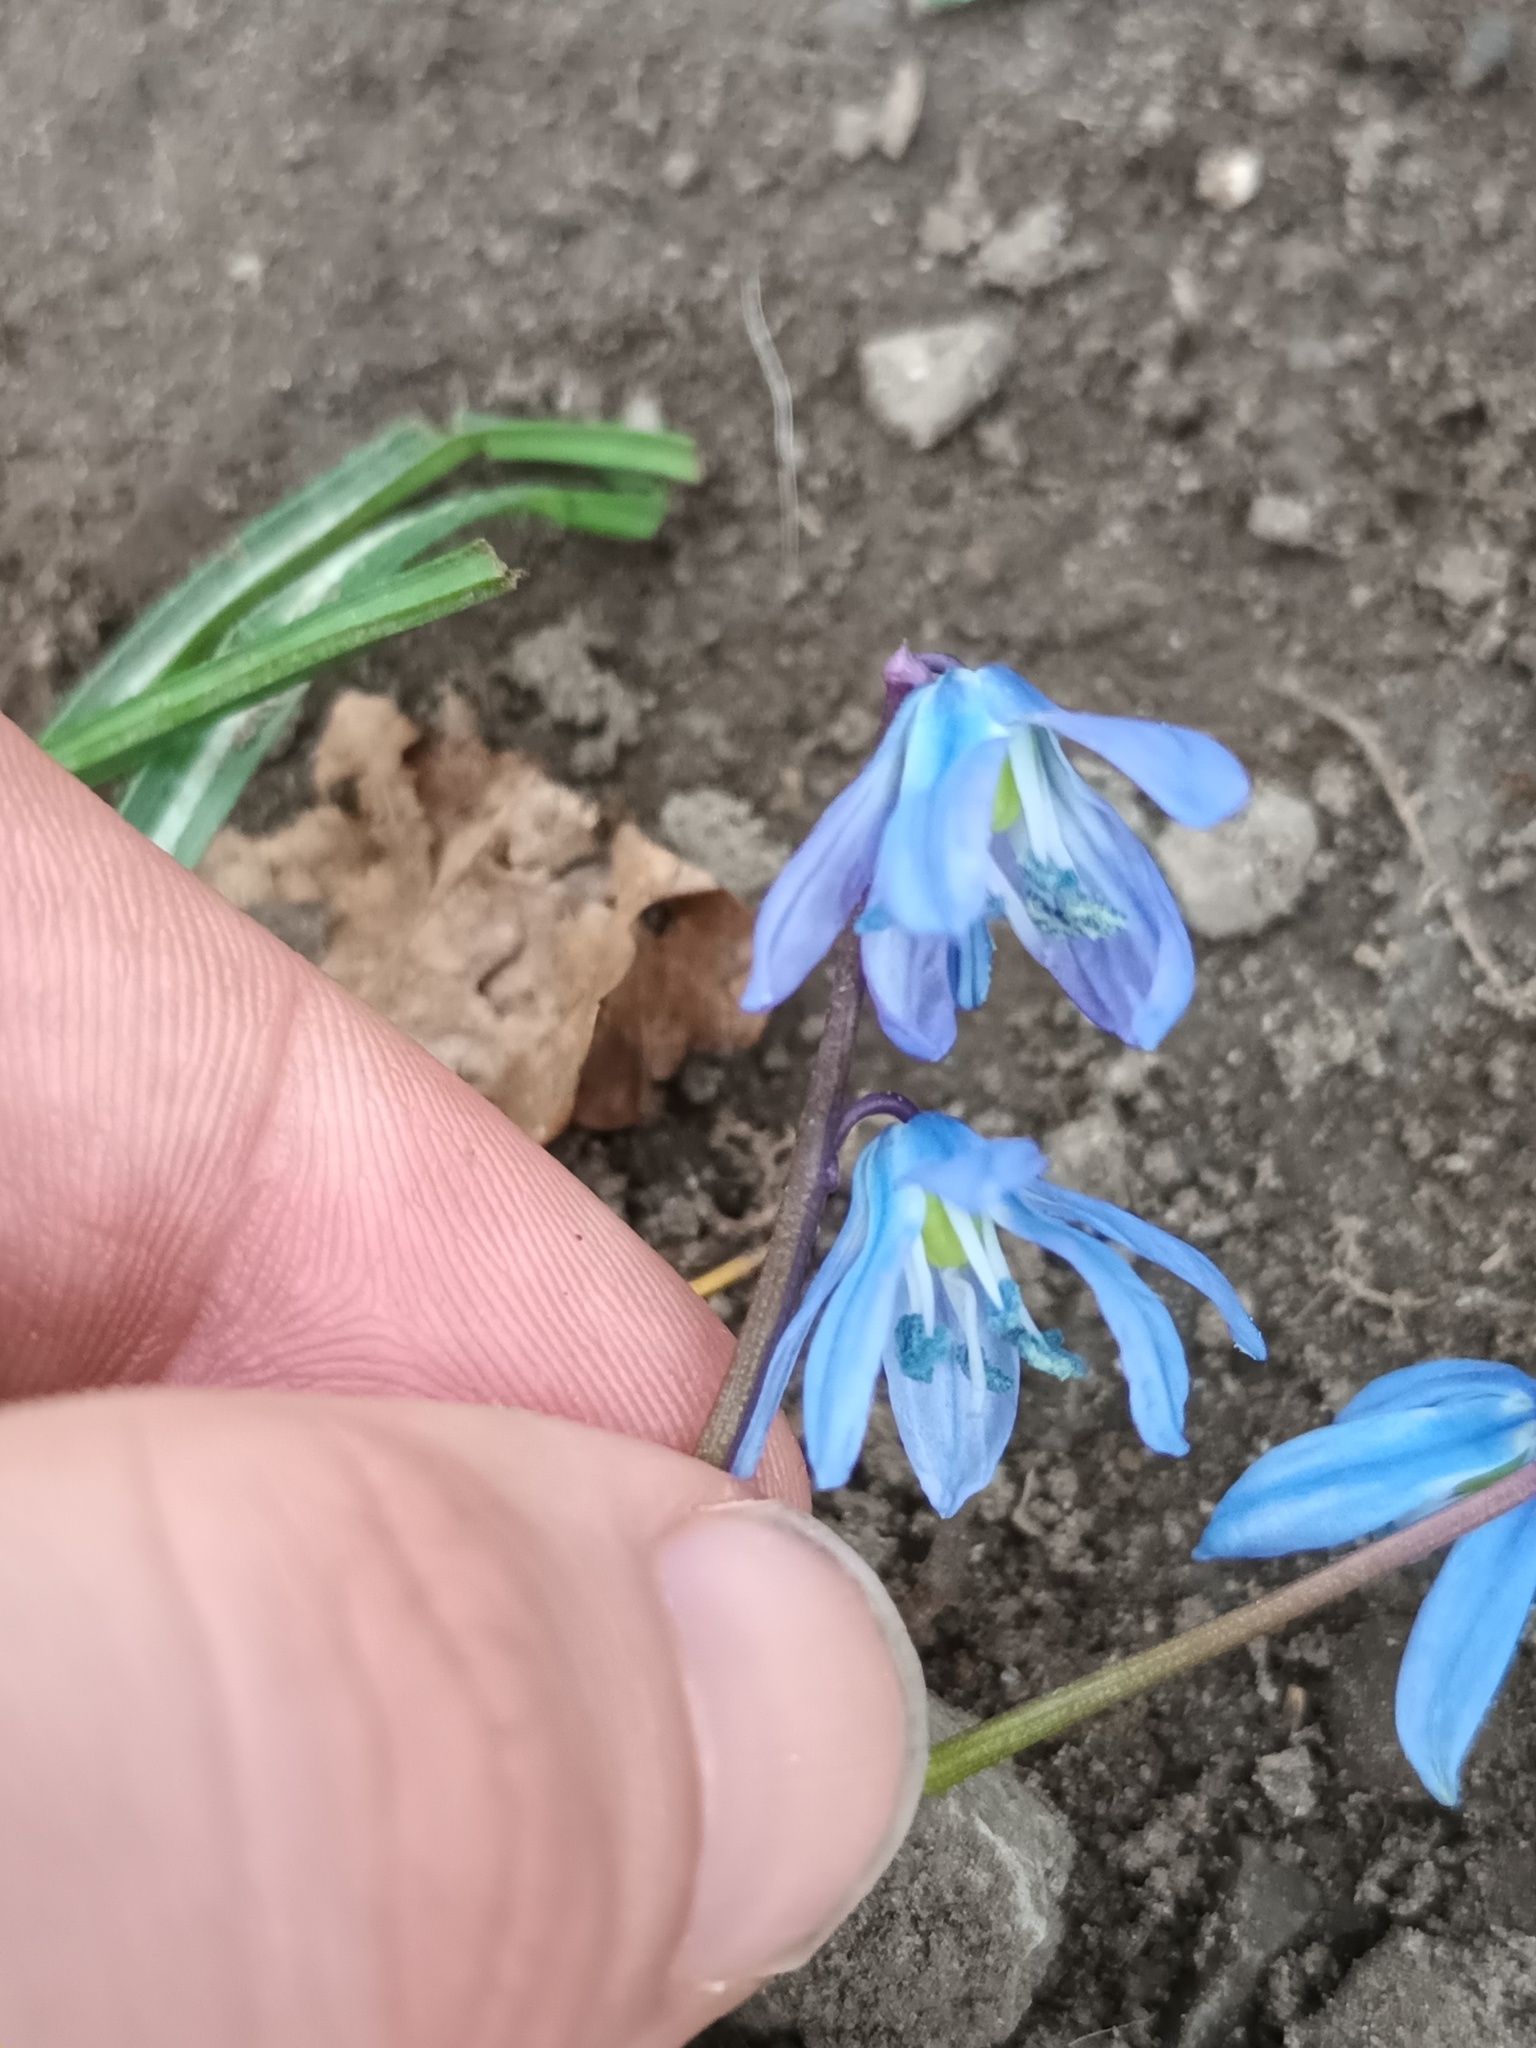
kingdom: Plantae
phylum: Tracheophyta
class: Liliopsida
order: Asparagales
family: Asparagaceae
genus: Scilla
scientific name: Scilla siberica
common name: Siberian squill
